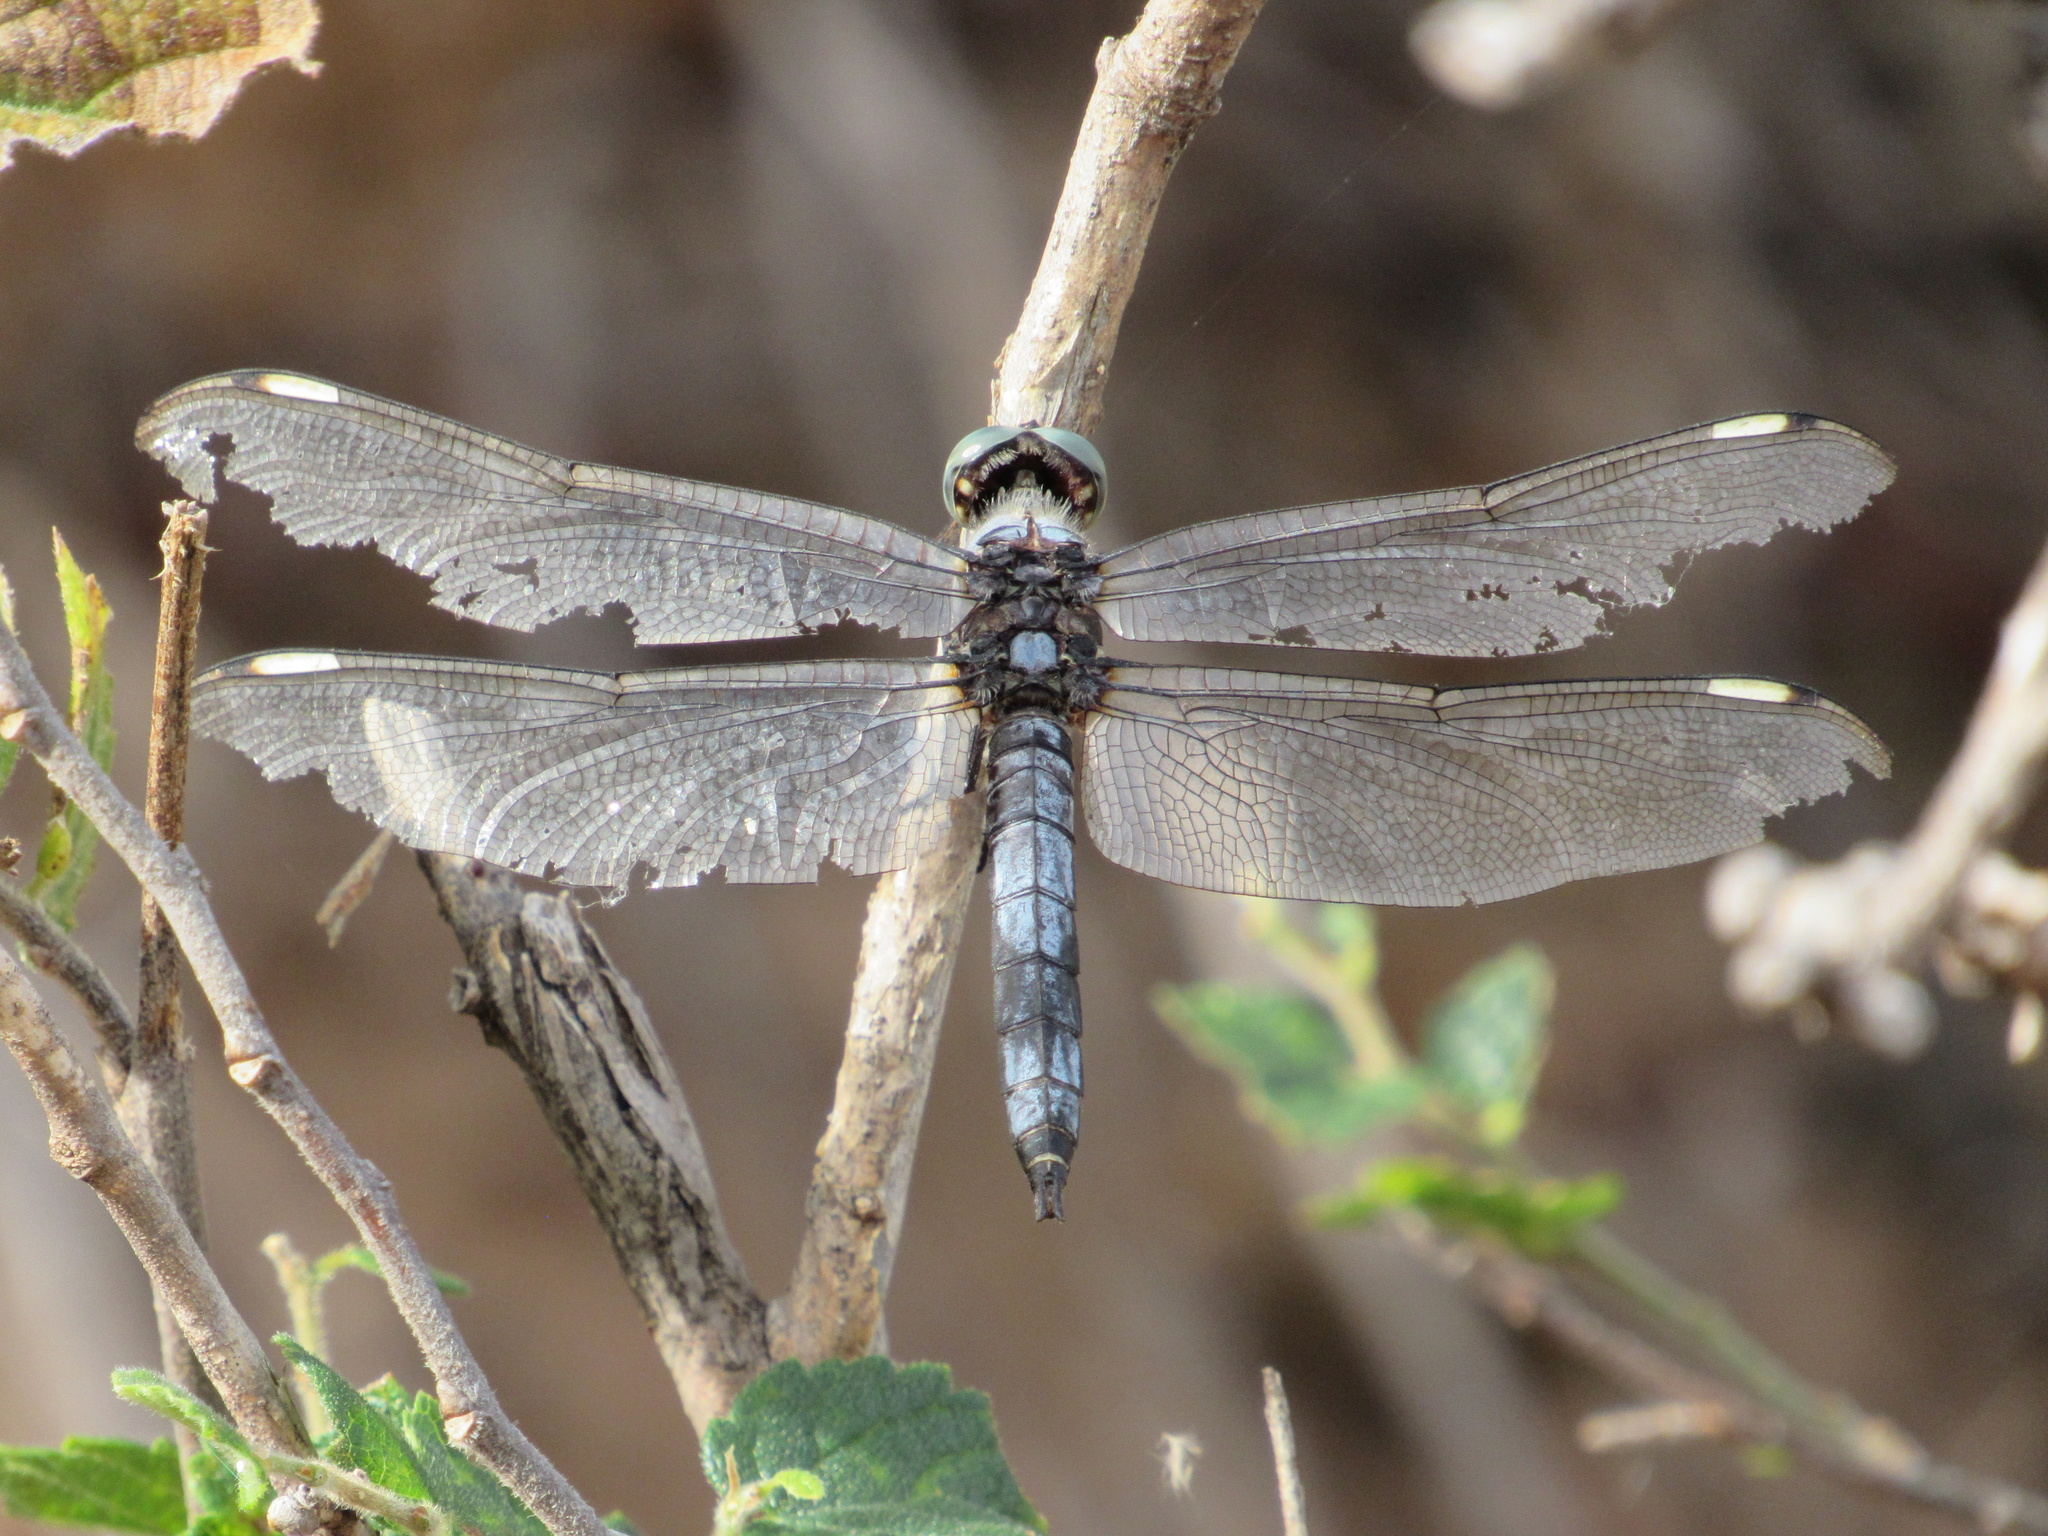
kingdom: Animalia
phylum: Arthropoda
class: Insecta
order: Odonata
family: Libellulidae
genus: Libellula
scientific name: Libellula comanche
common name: Comanche skimmer
